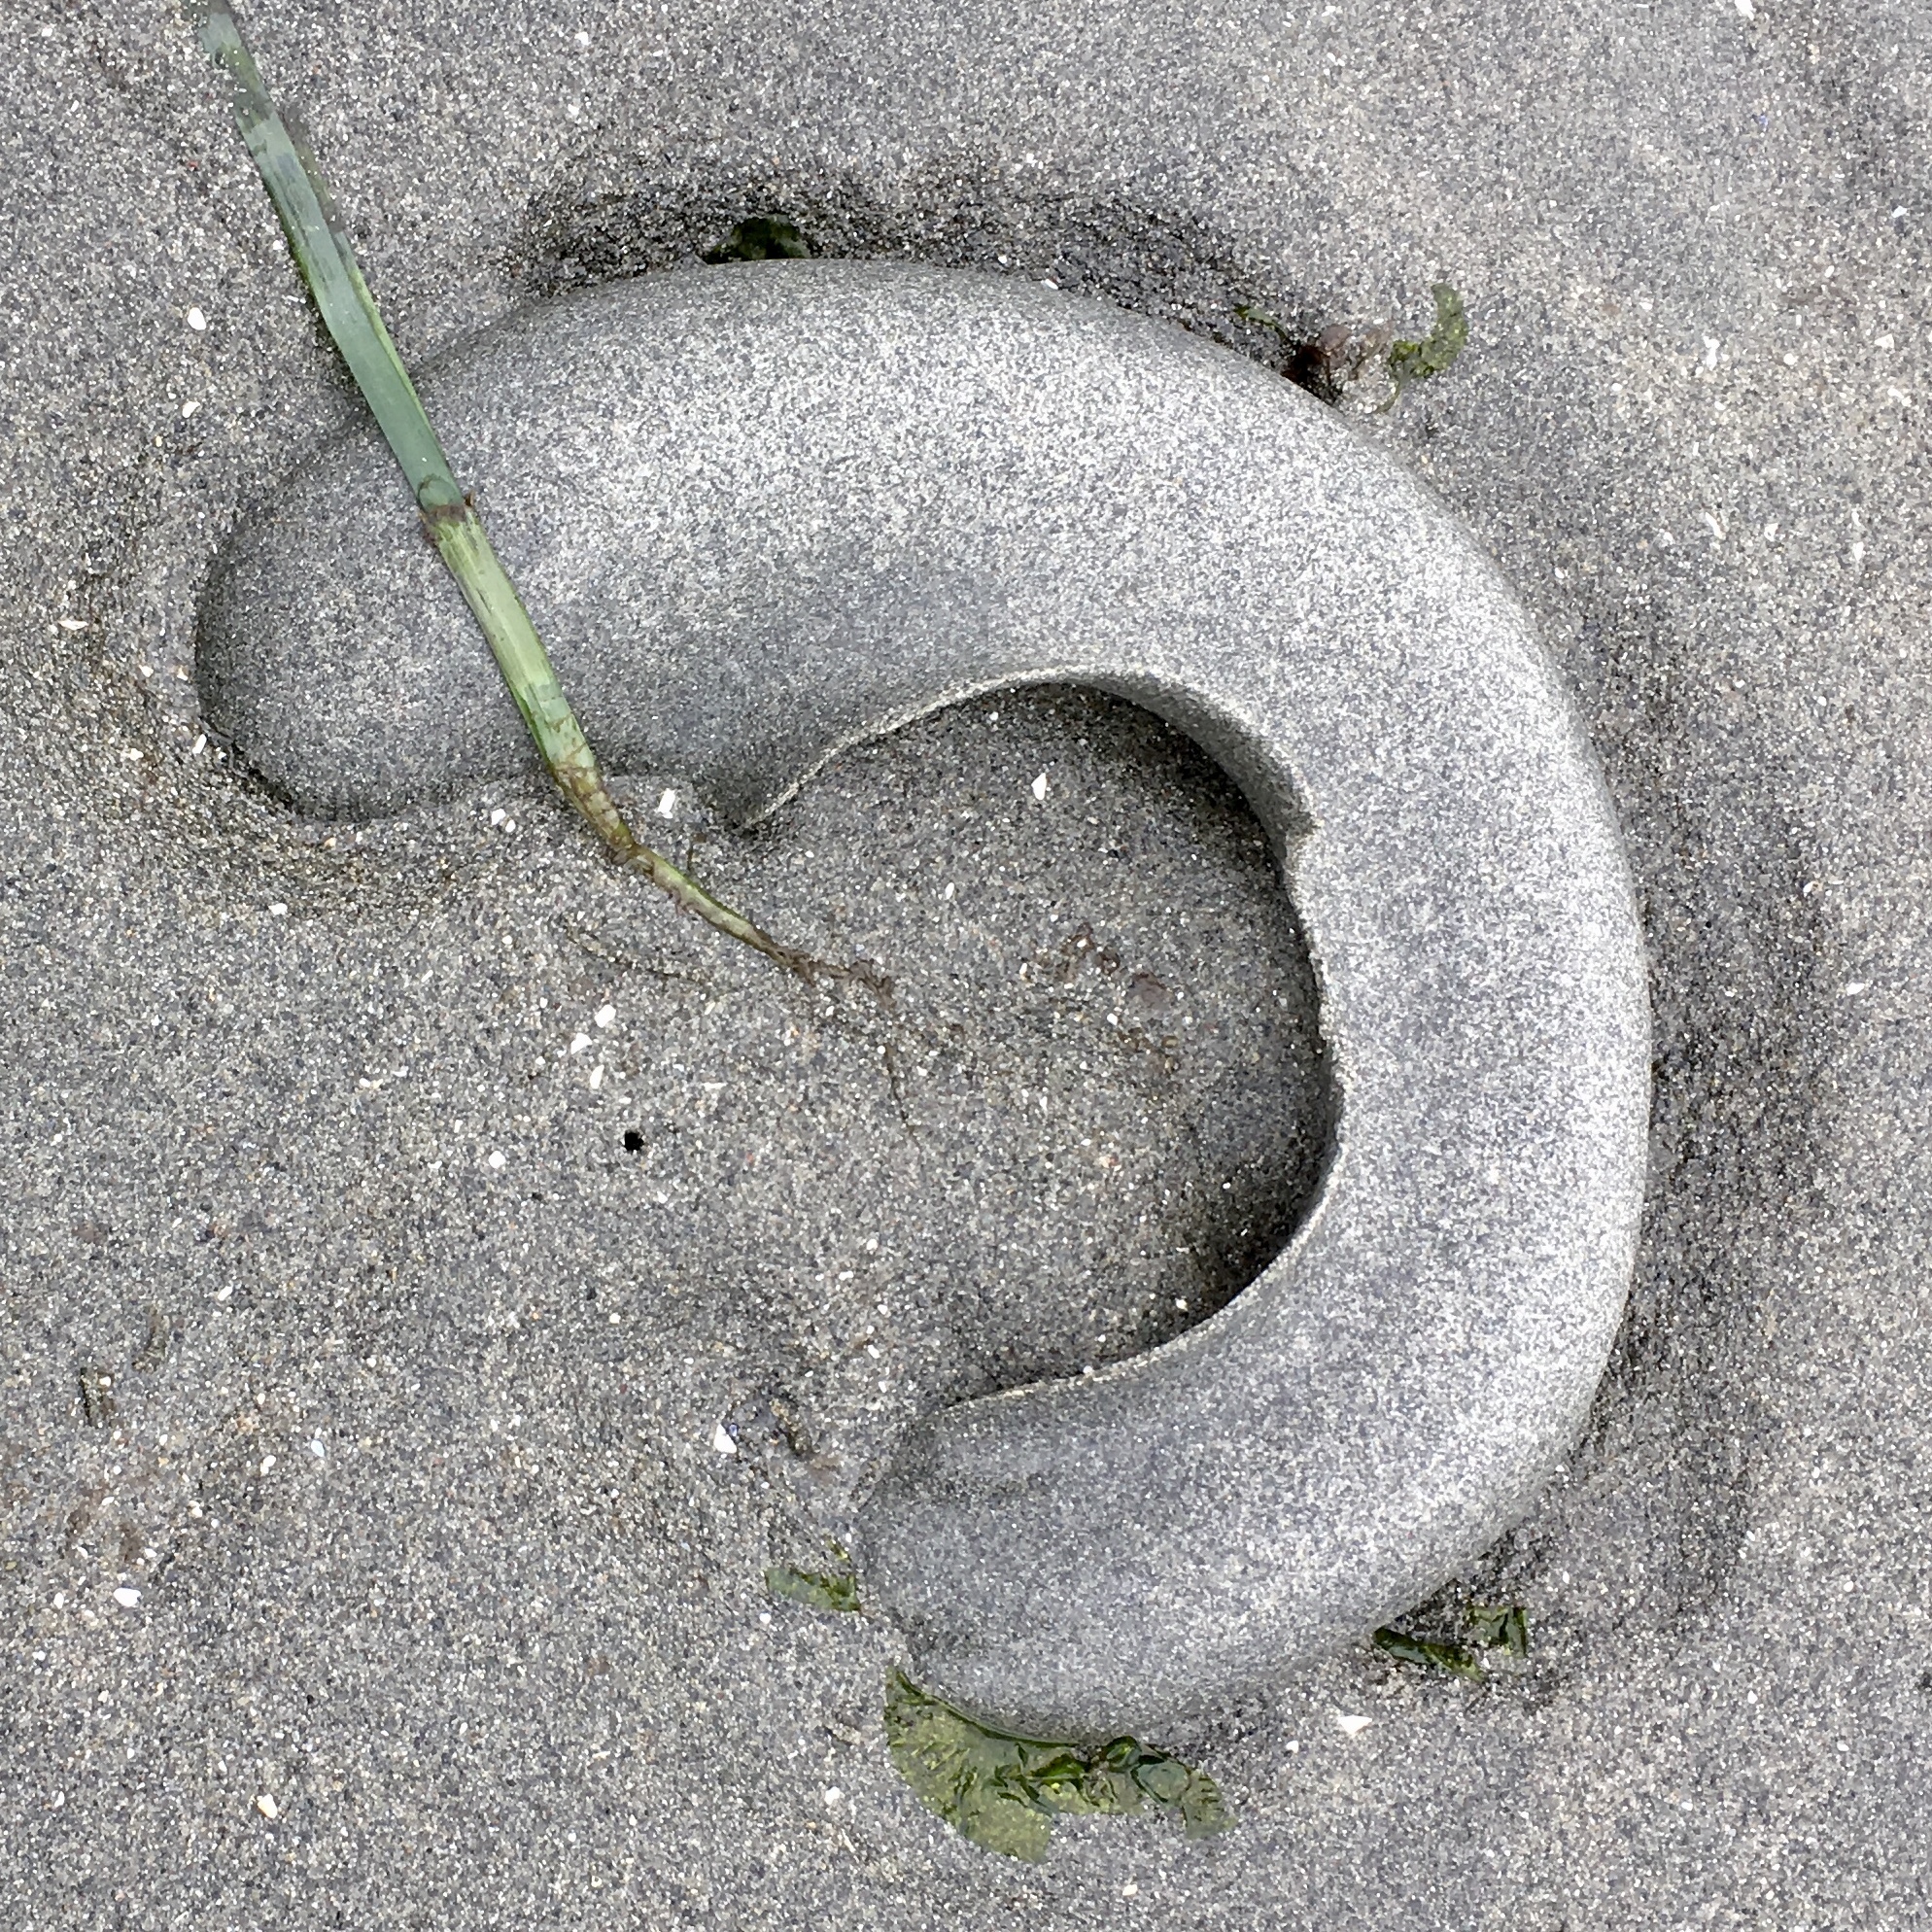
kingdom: Animalia
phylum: Mollusca
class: Gastropoda
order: Littorinimorpha
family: Naticidae
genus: Neverita
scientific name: Neverita lewisii
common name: Lewis' moonsnail
